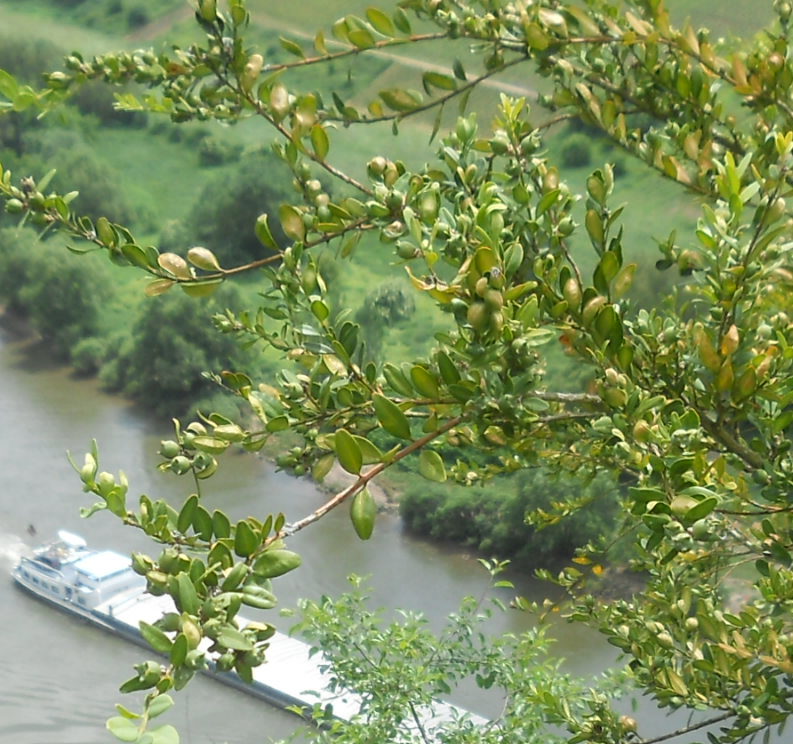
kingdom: Plantae
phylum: Tracheophyta
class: Magnoliopsida
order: Buxales
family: Buxaceae
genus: Buxus
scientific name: Buxus sempervirens
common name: Box
